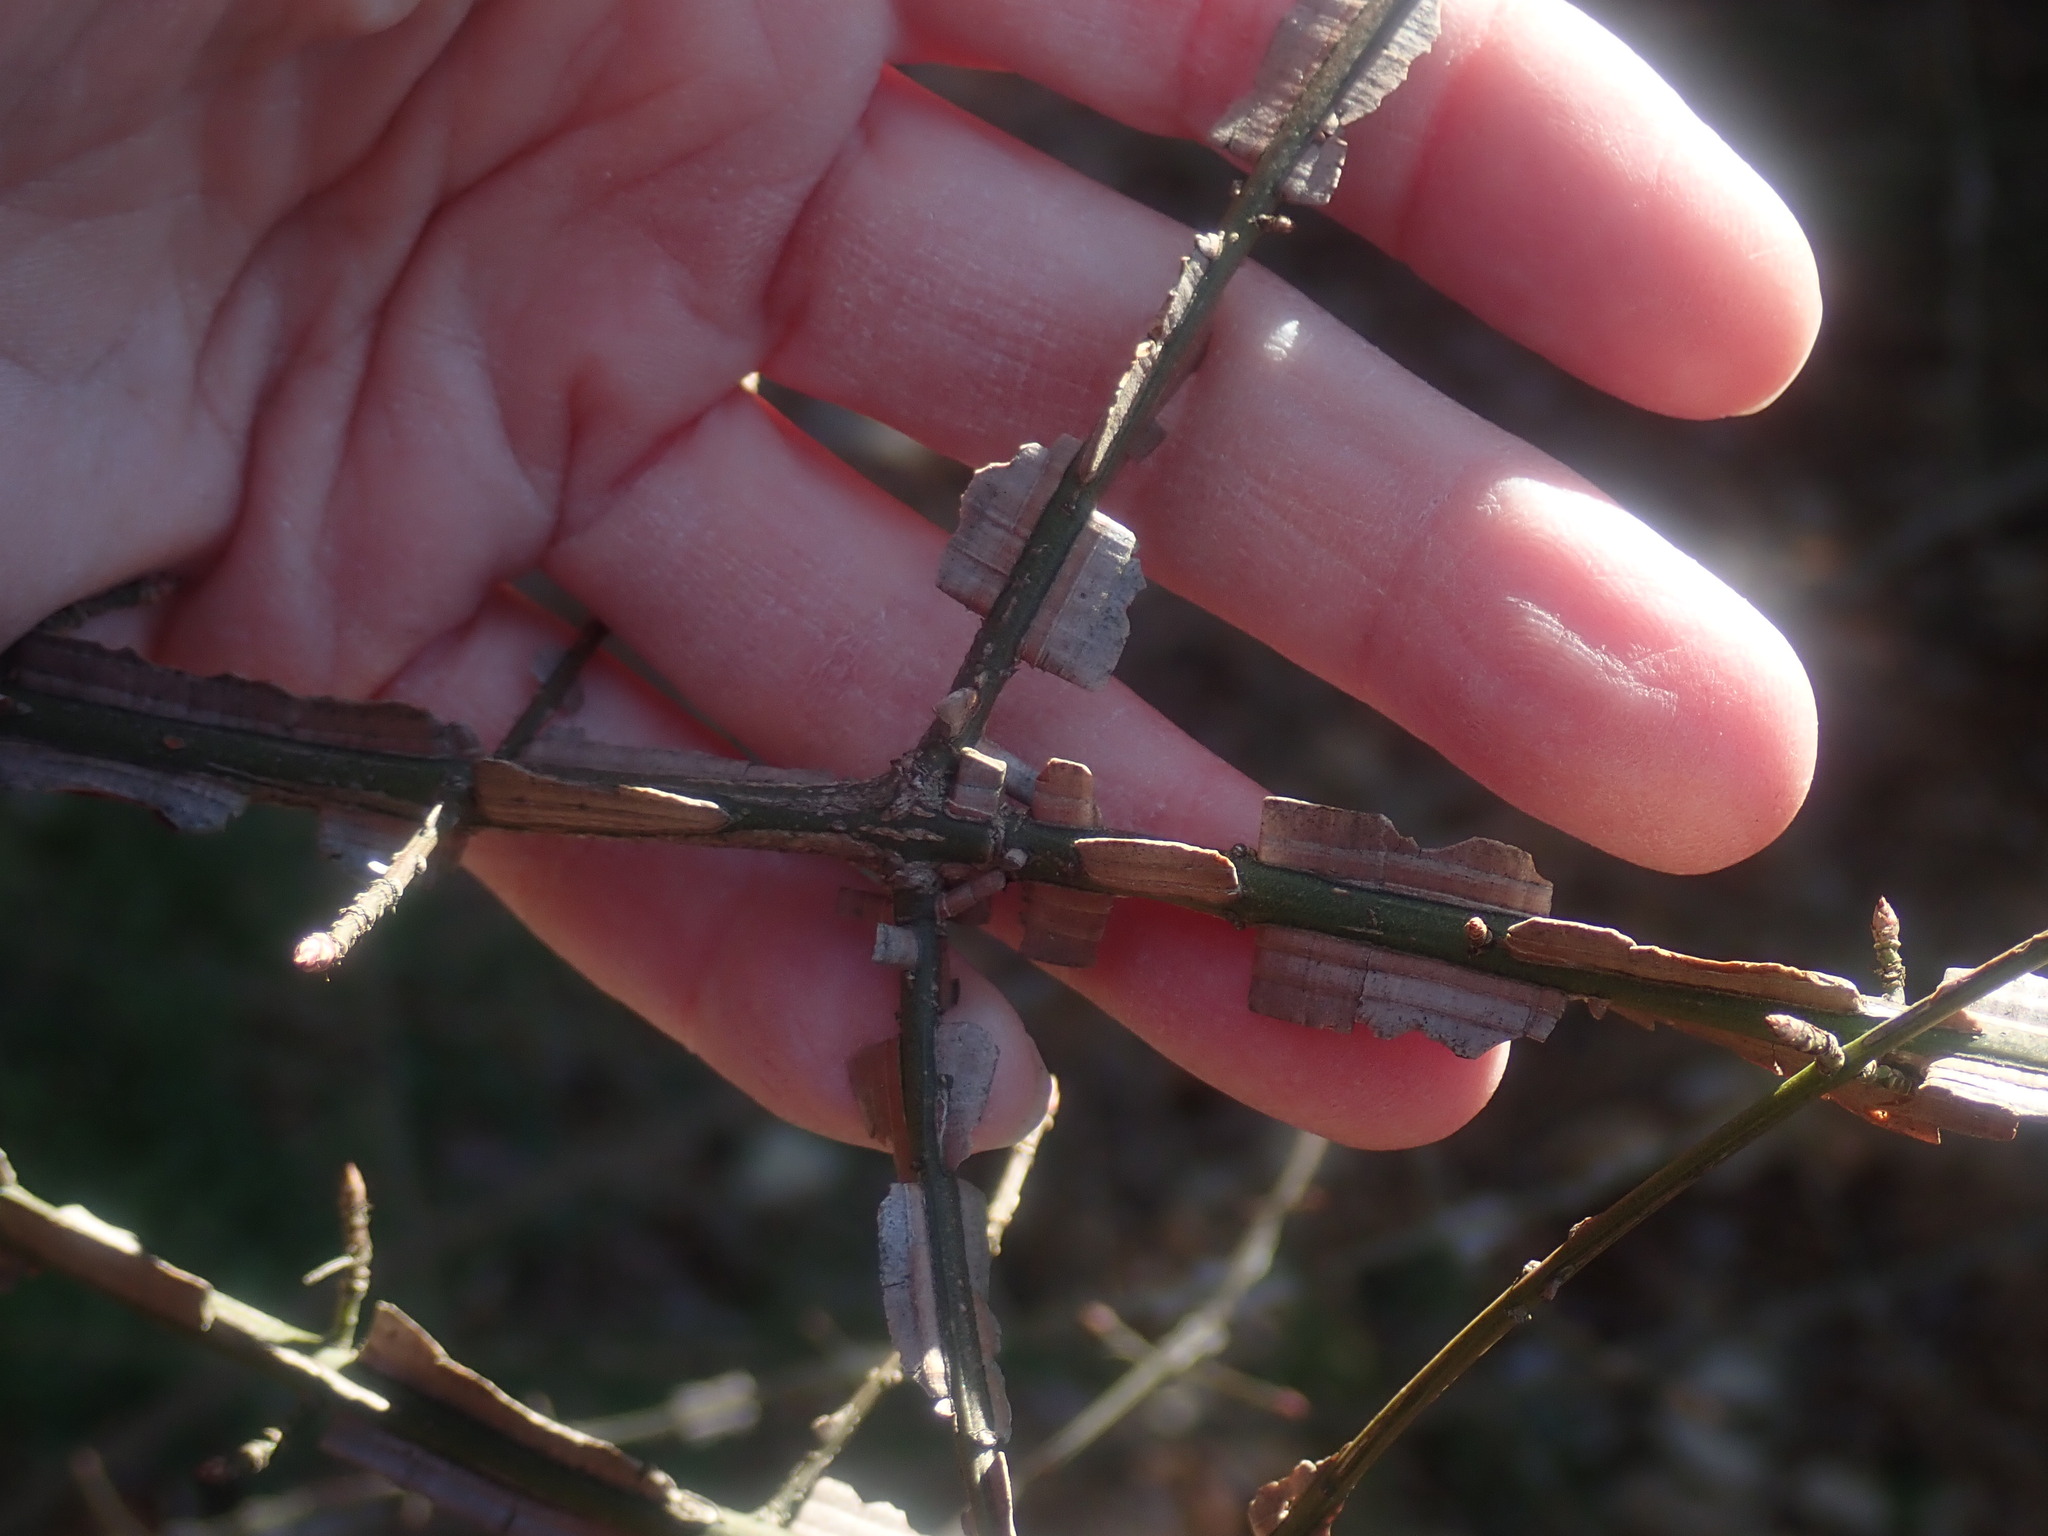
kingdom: Plantae
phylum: Tracheophyta
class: Magnoliopsida
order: Celastrales
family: Celastraceae
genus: Euonymus
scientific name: Euonymus alatus
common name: Winged euonymus
